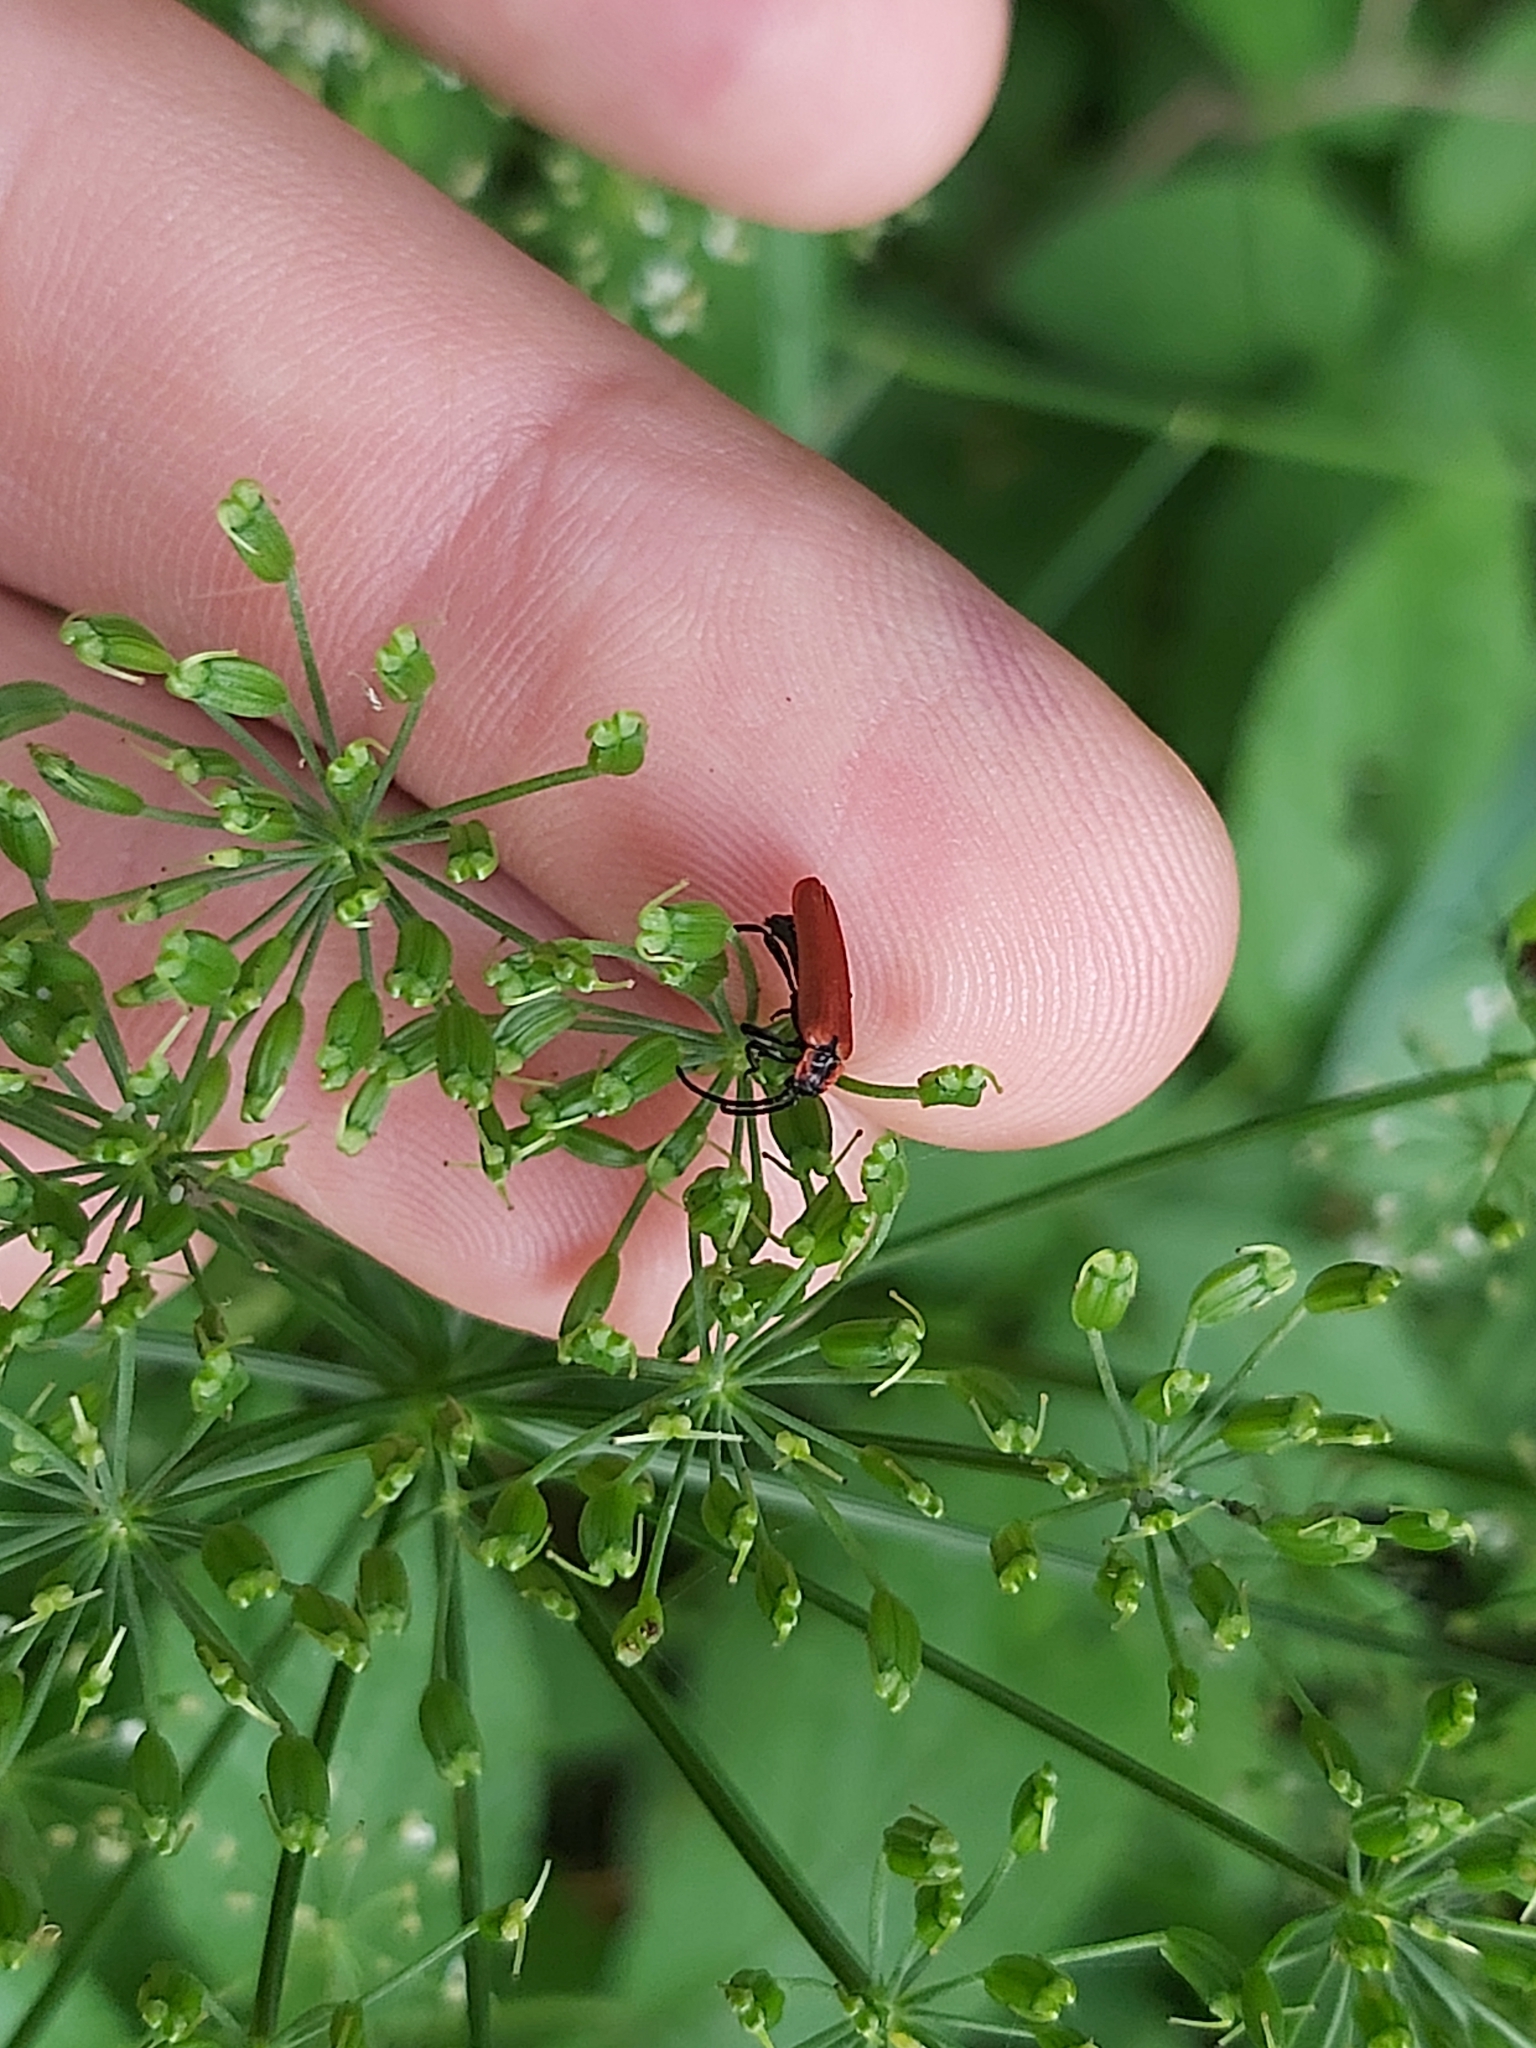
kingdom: Animalia
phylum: Arthropoda
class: Insecta
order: Coleoptera
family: Lycidae
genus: Lygistopterus
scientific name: Lygistopterus sanguineus
